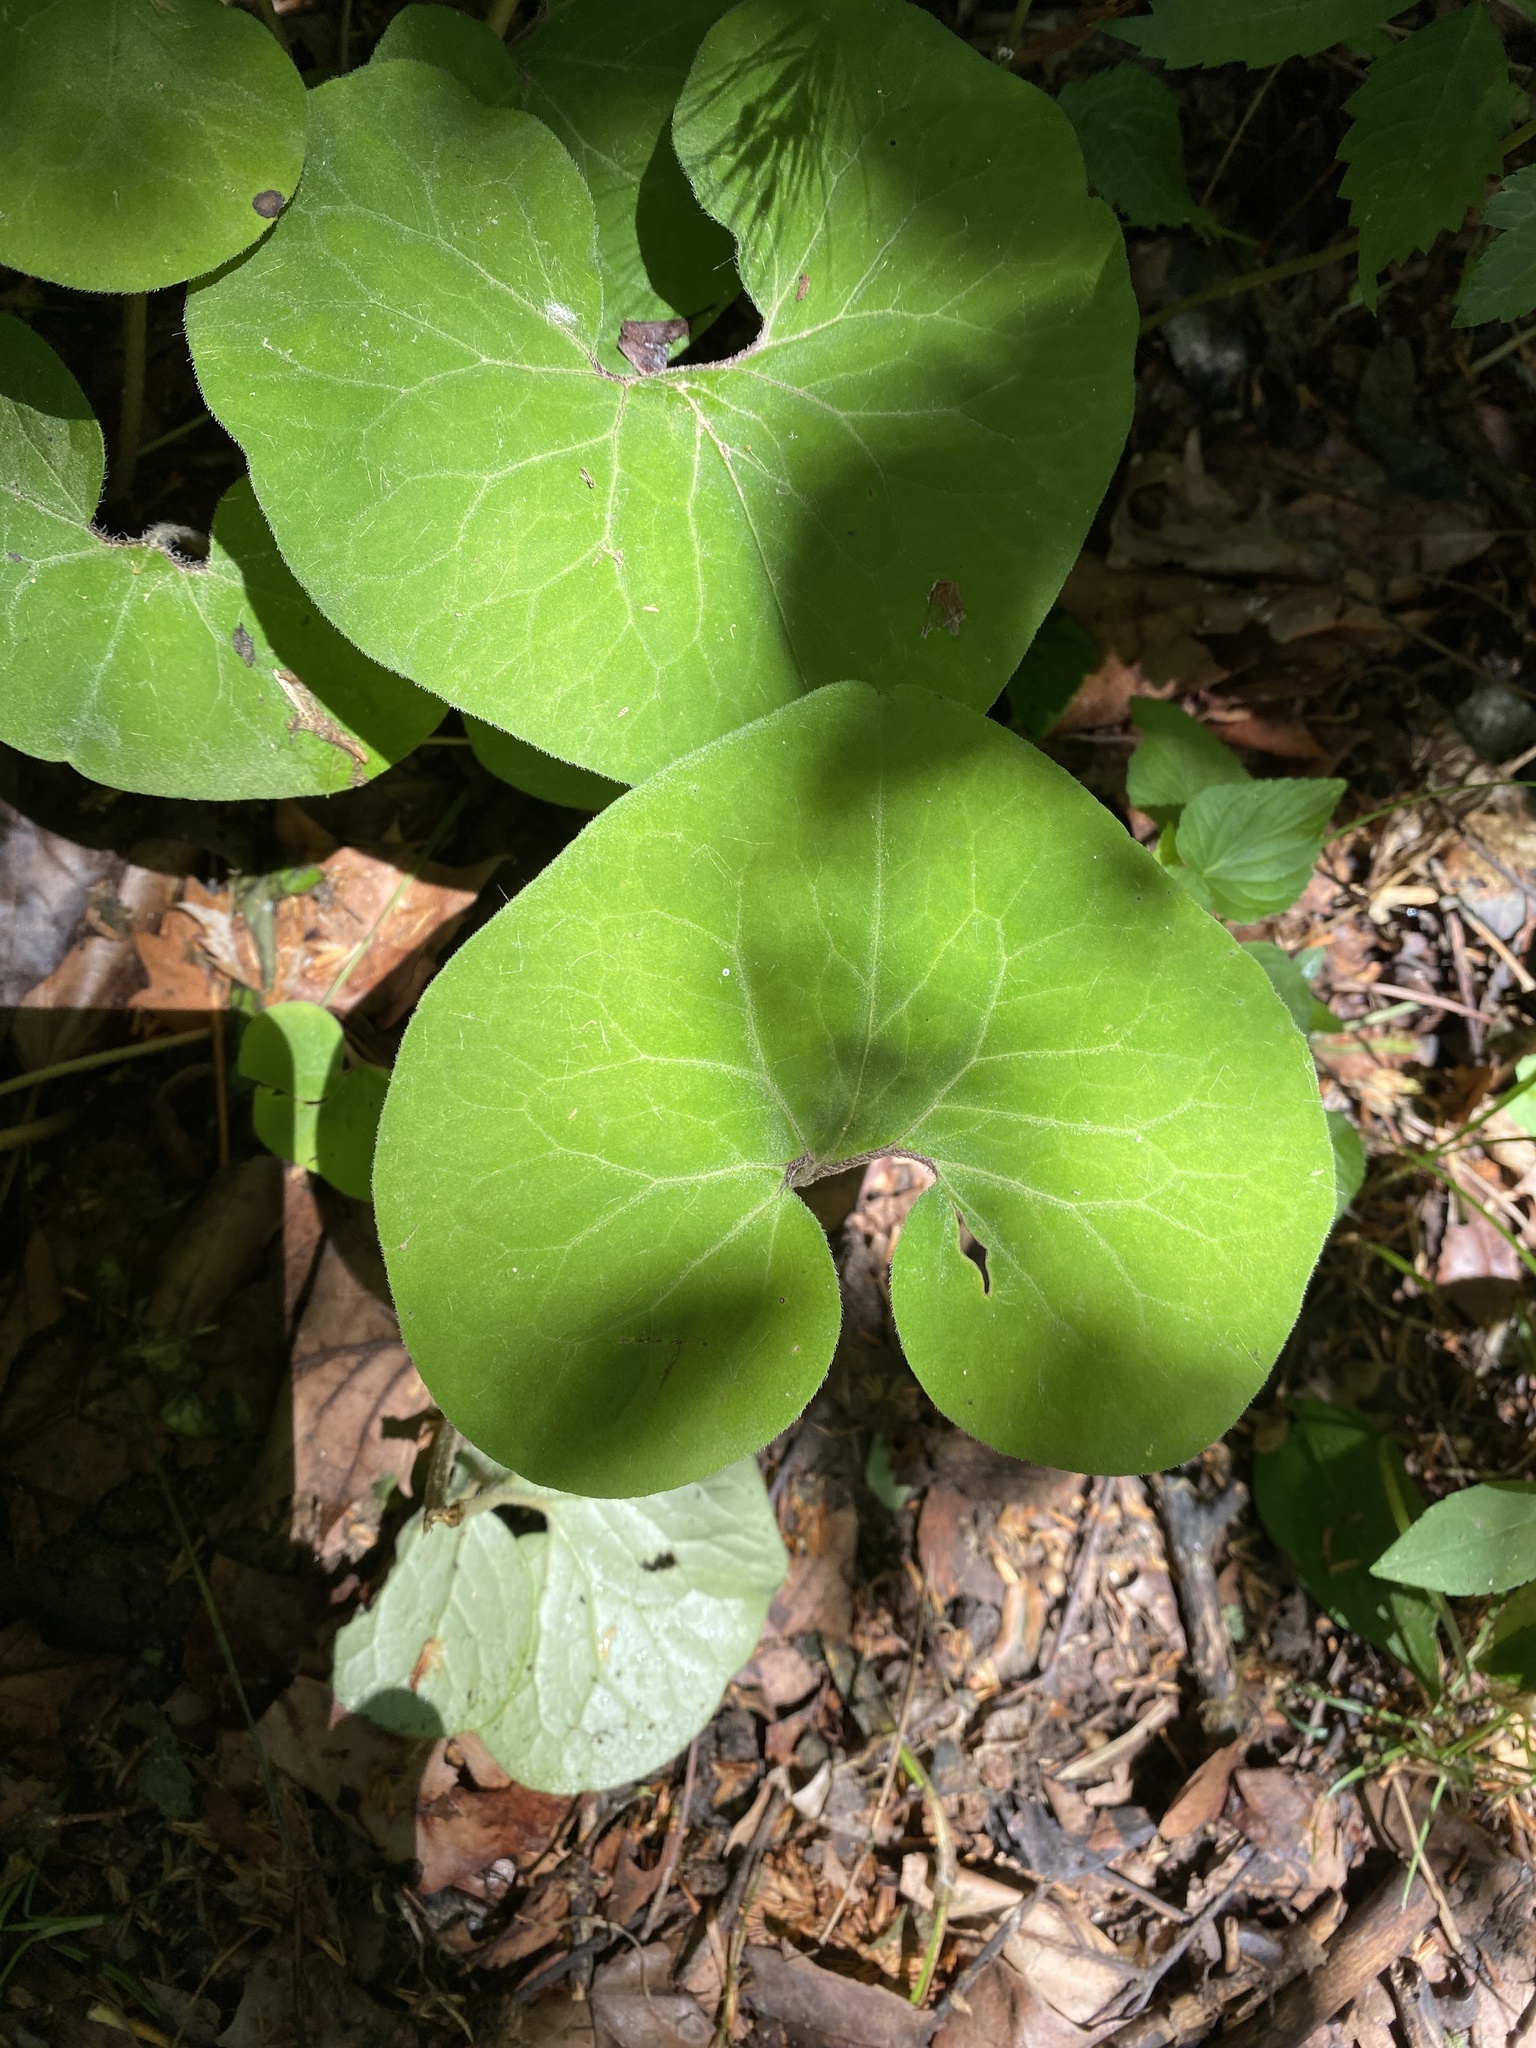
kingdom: Plantae
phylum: Tracheophyta
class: Magnoliopsida
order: Piperales
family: Aristolochiaceae
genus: Asarum
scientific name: Asarum canadense
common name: Wild ginger
